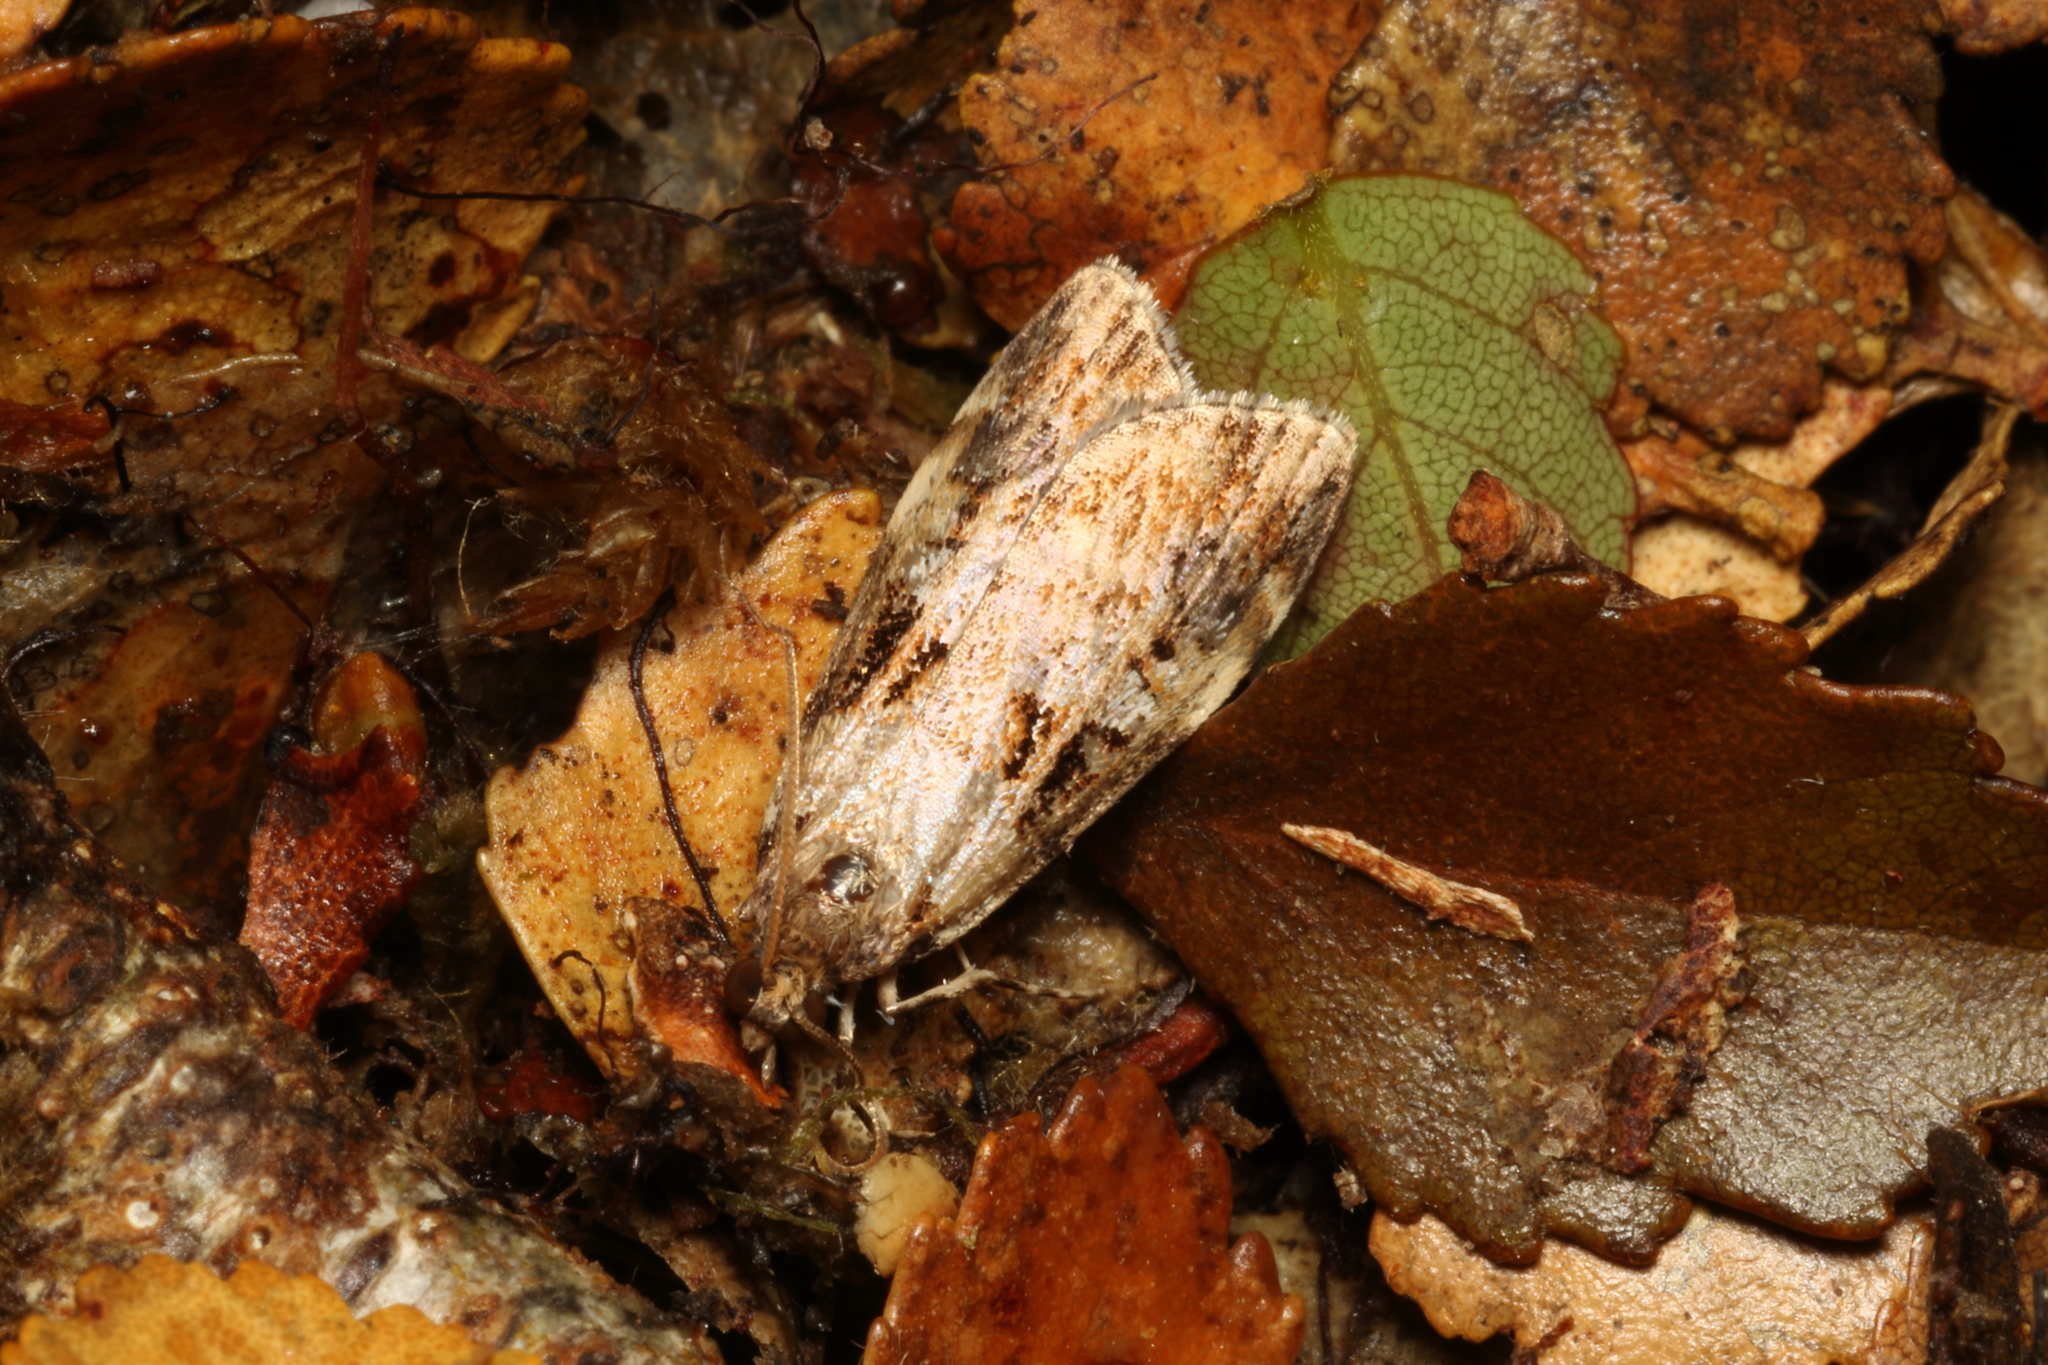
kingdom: Animalia
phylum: Arthropoda
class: Insecta
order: Lepidoptera
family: Crambidae
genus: Scoparia
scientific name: Scoparia acharis
